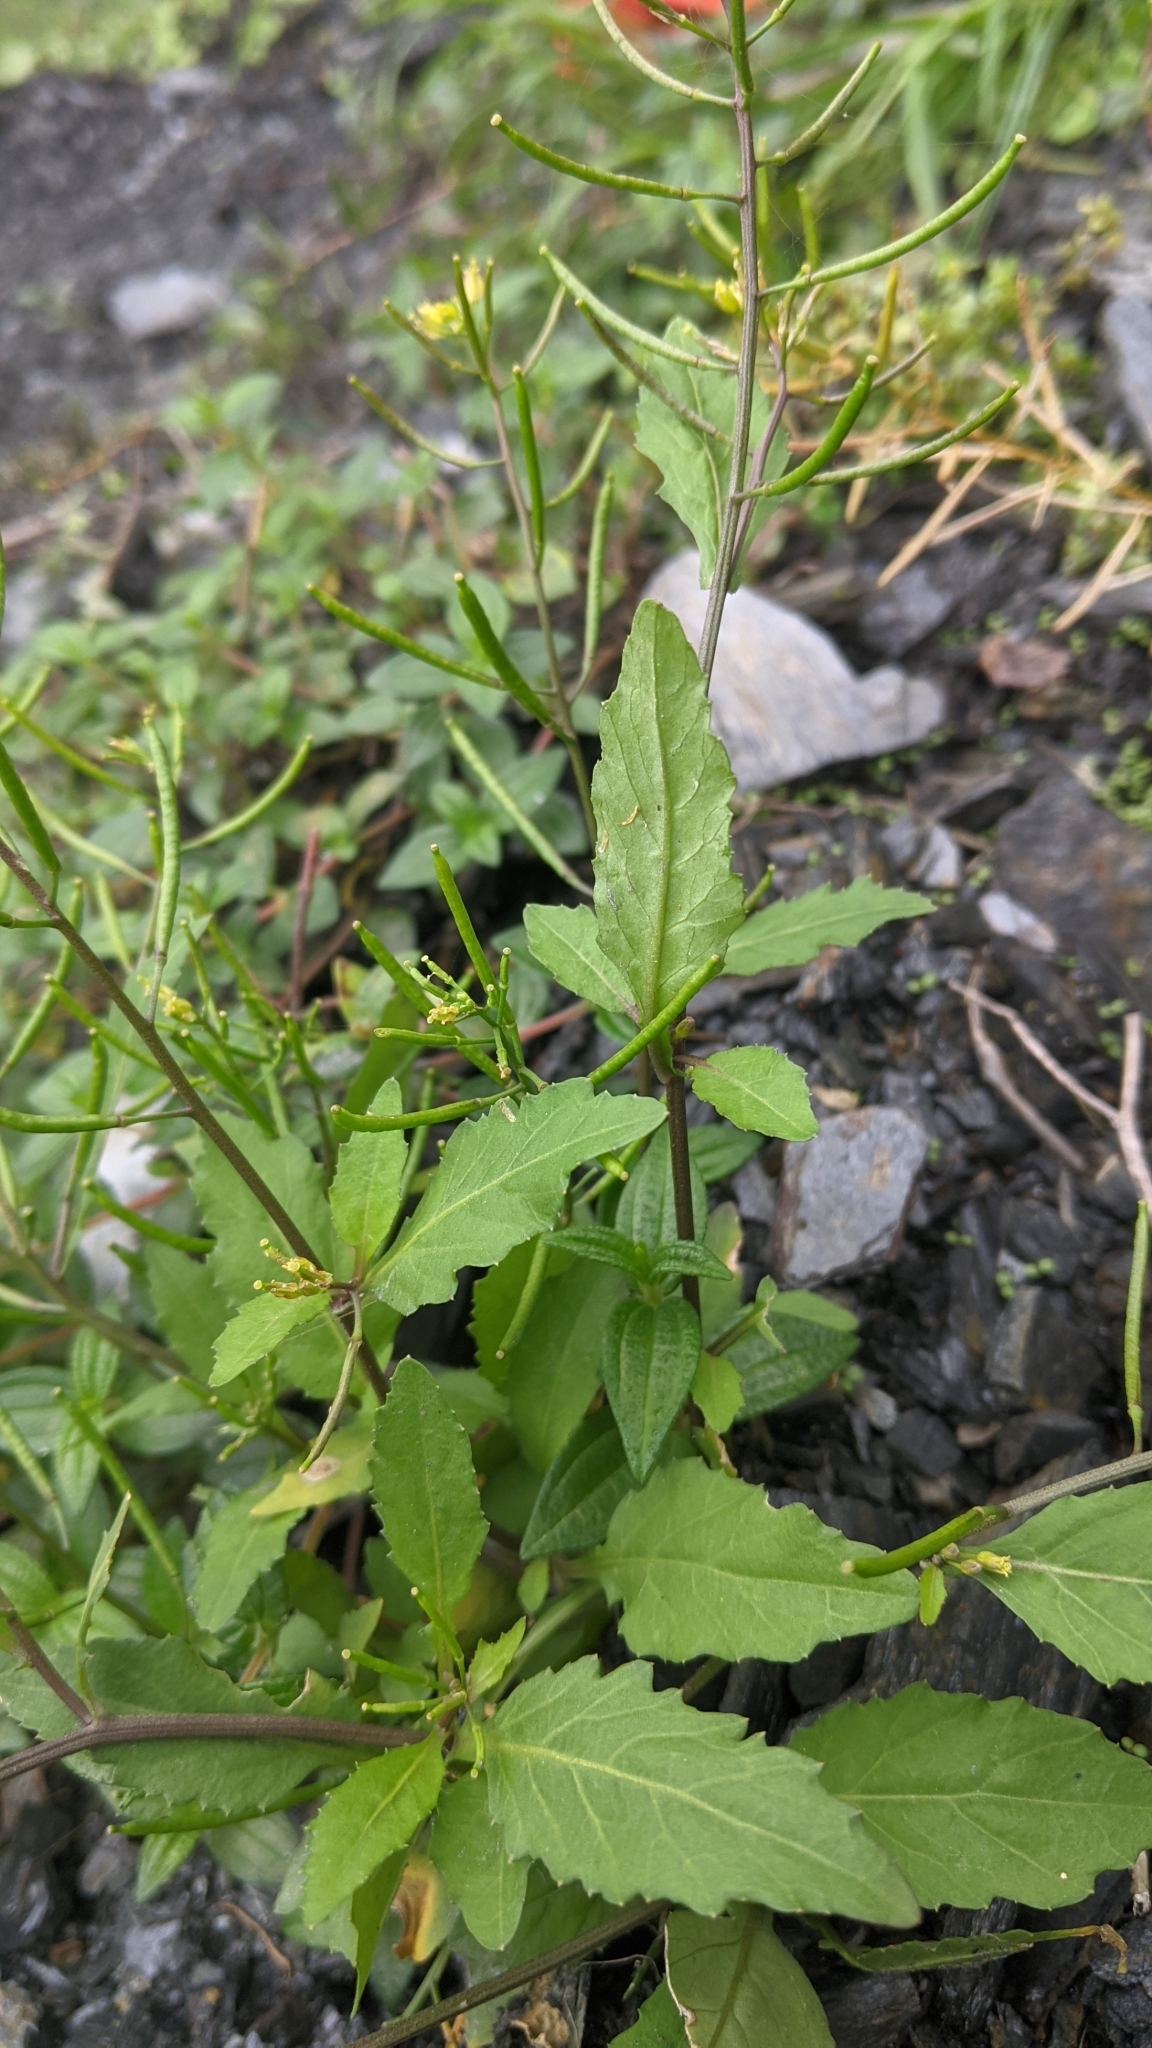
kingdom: Plantae
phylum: Tracheophyta
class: Magnoliopsida
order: Brassicales
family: Brassicaceae
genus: Rorippa
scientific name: Rorippa indica
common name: Variableleaf yellowcress
